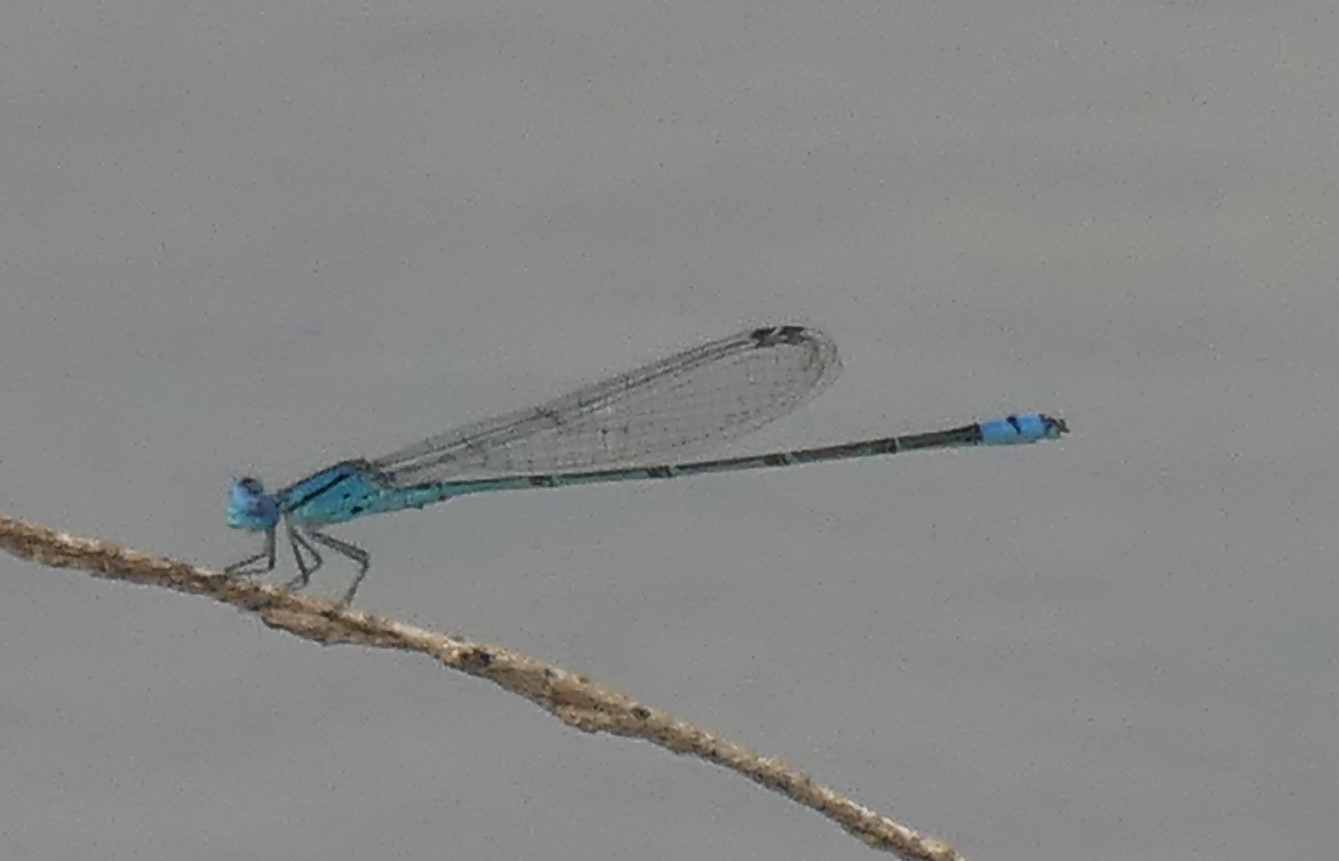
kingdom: Animalia
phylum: Arthropoda
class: Insecta
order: Odonata
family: Coenagrionidae
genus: Pseudagrion
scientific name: Pseudagrion microcephalum
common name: Blue riverdamsel
